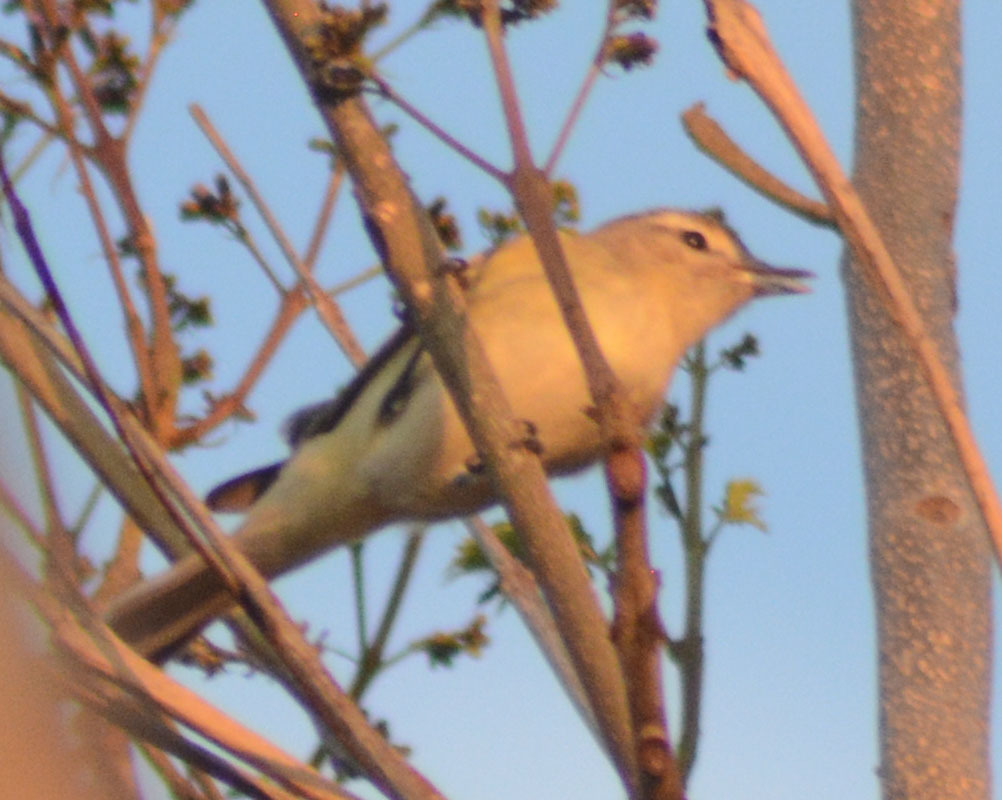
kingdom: Animalia
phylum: Chordata
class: Aves
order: Passeriformes
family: Vireonidae
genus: Vireo
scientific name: Vireo gilvus
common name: Warbling vireo
